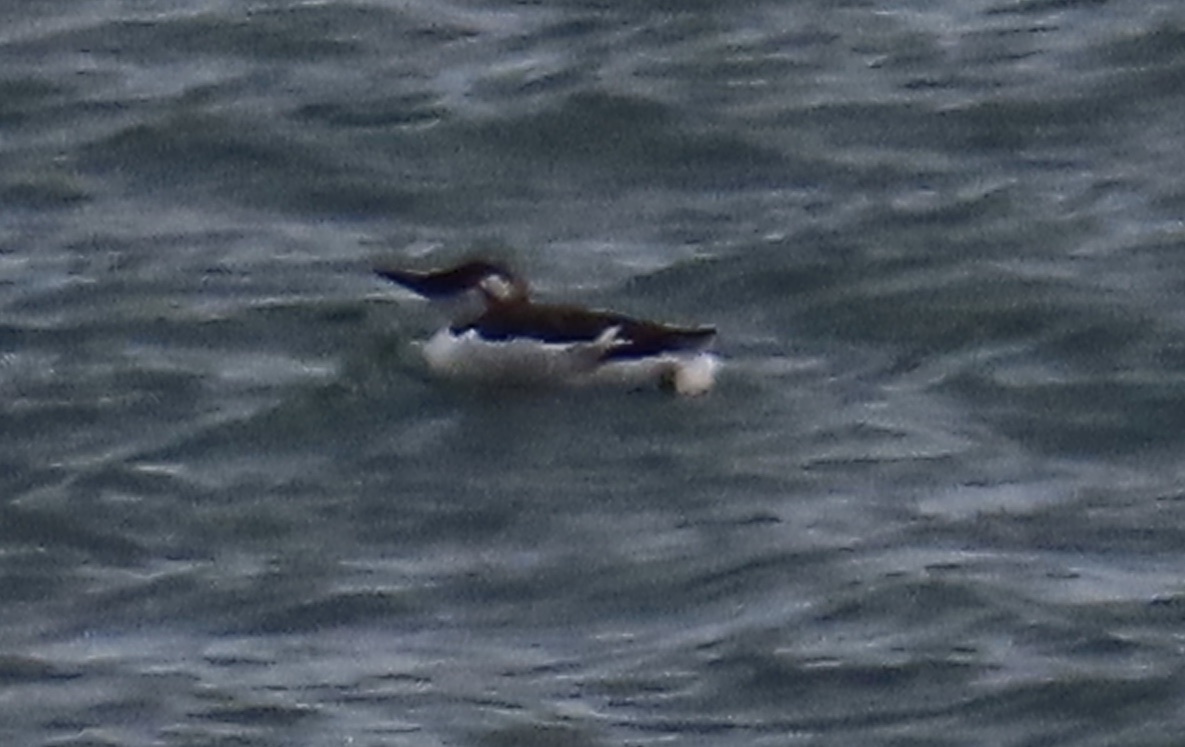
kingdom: Animalia
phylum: Chordata
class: Aves
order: Charadriiformes
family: Alcidae
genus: Uria
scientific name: Uria aalge
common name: Common murre
